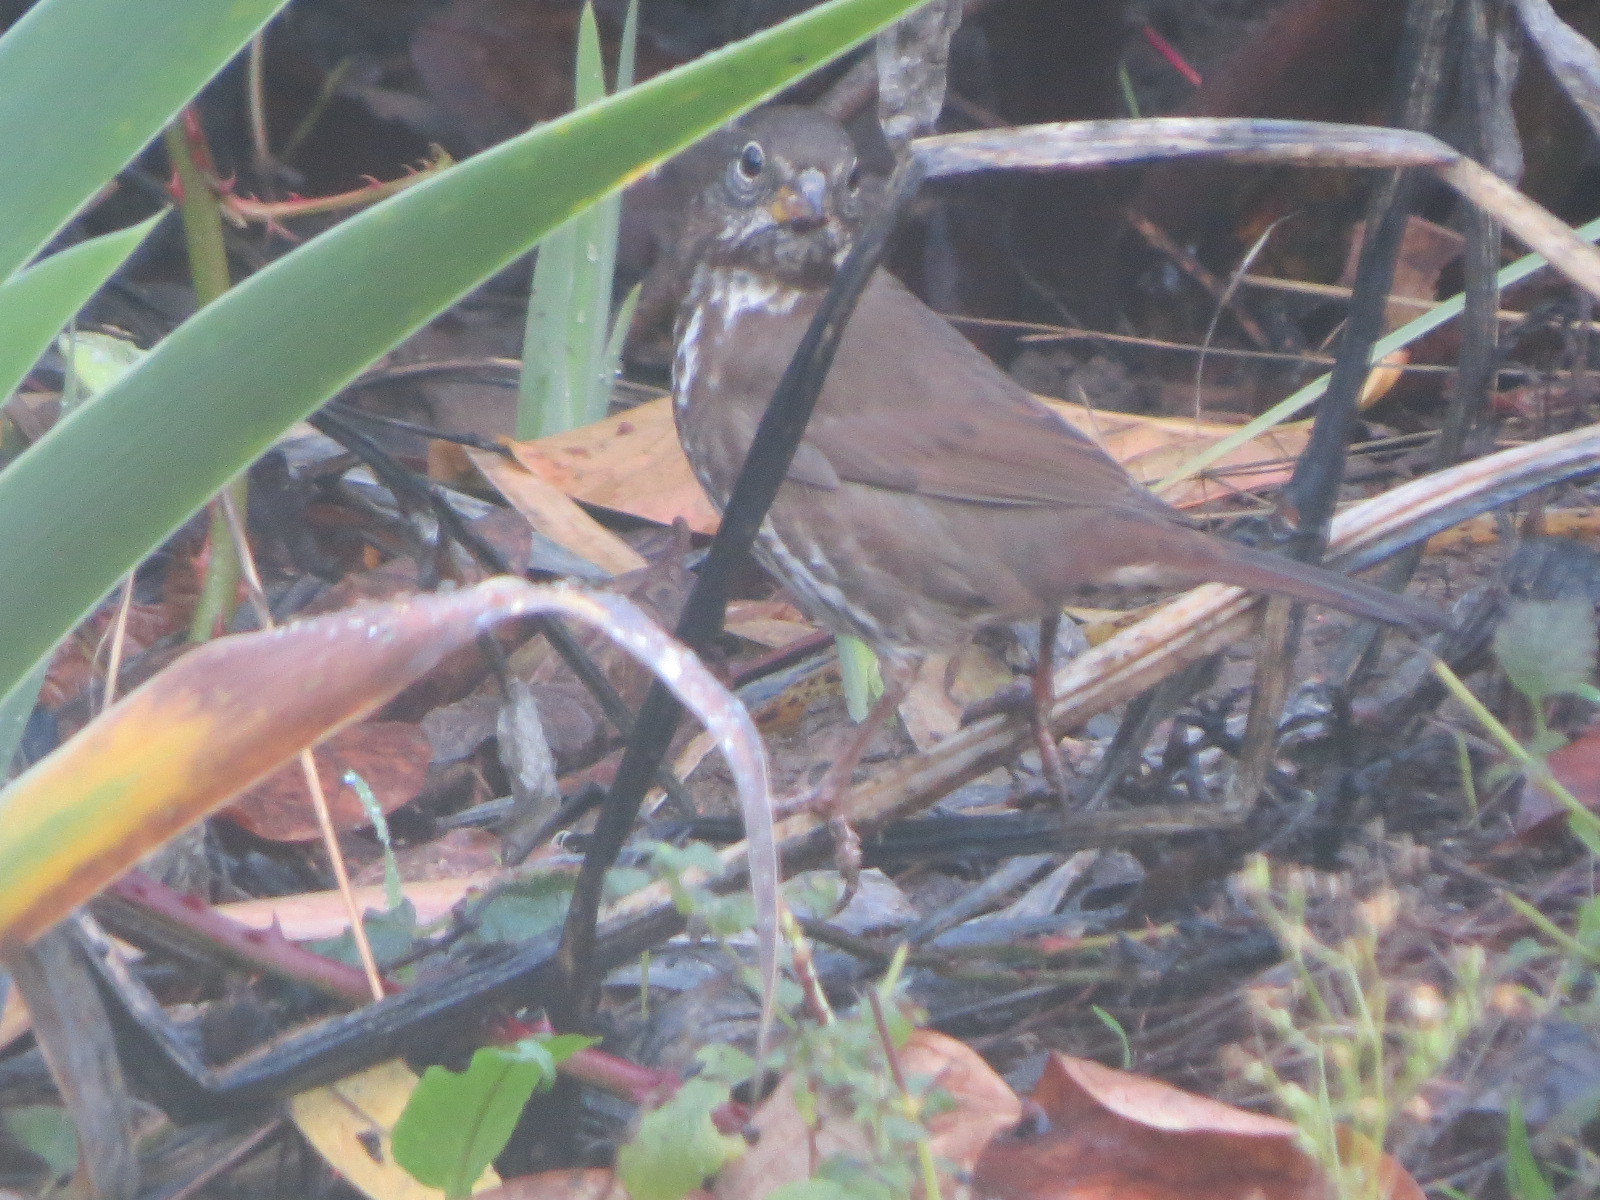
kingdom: Animalia
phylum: Chordata
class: Aves
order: Passeriformes
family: Passerellidae
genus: Passerella
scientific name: Passerella iliaca
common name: Fox sparrow
